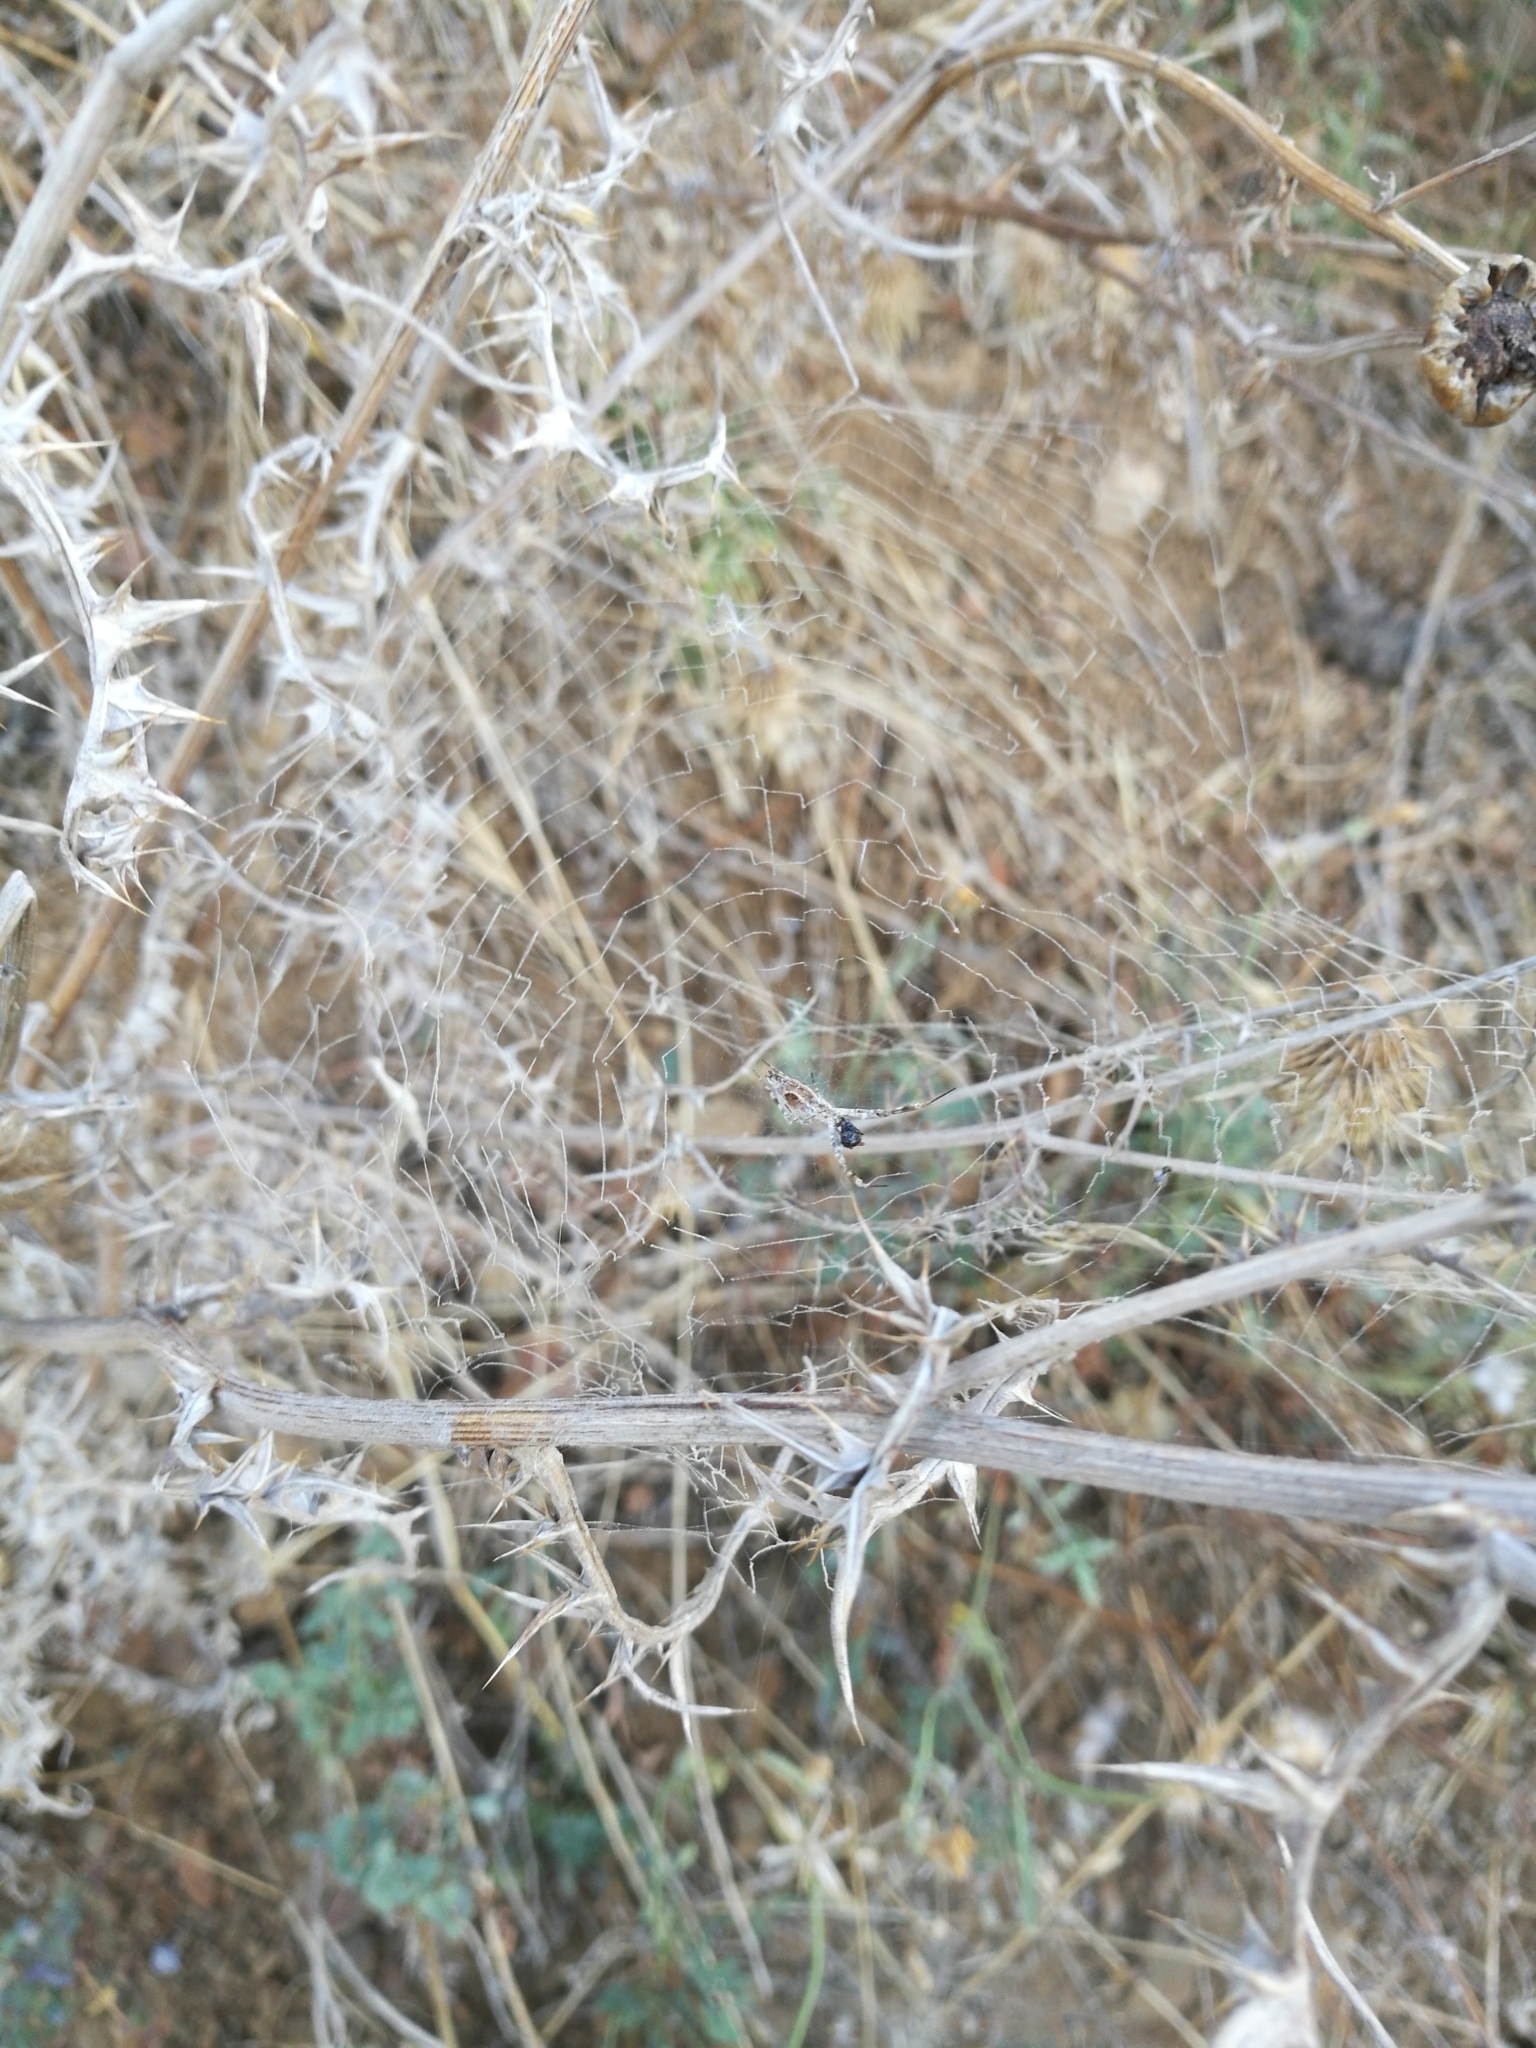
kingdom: Animalia
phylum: Arthropoda
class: Arachnida
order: Araneae
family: Uloboridae
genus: Uloborus
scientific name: Uloborus walckenaerius
